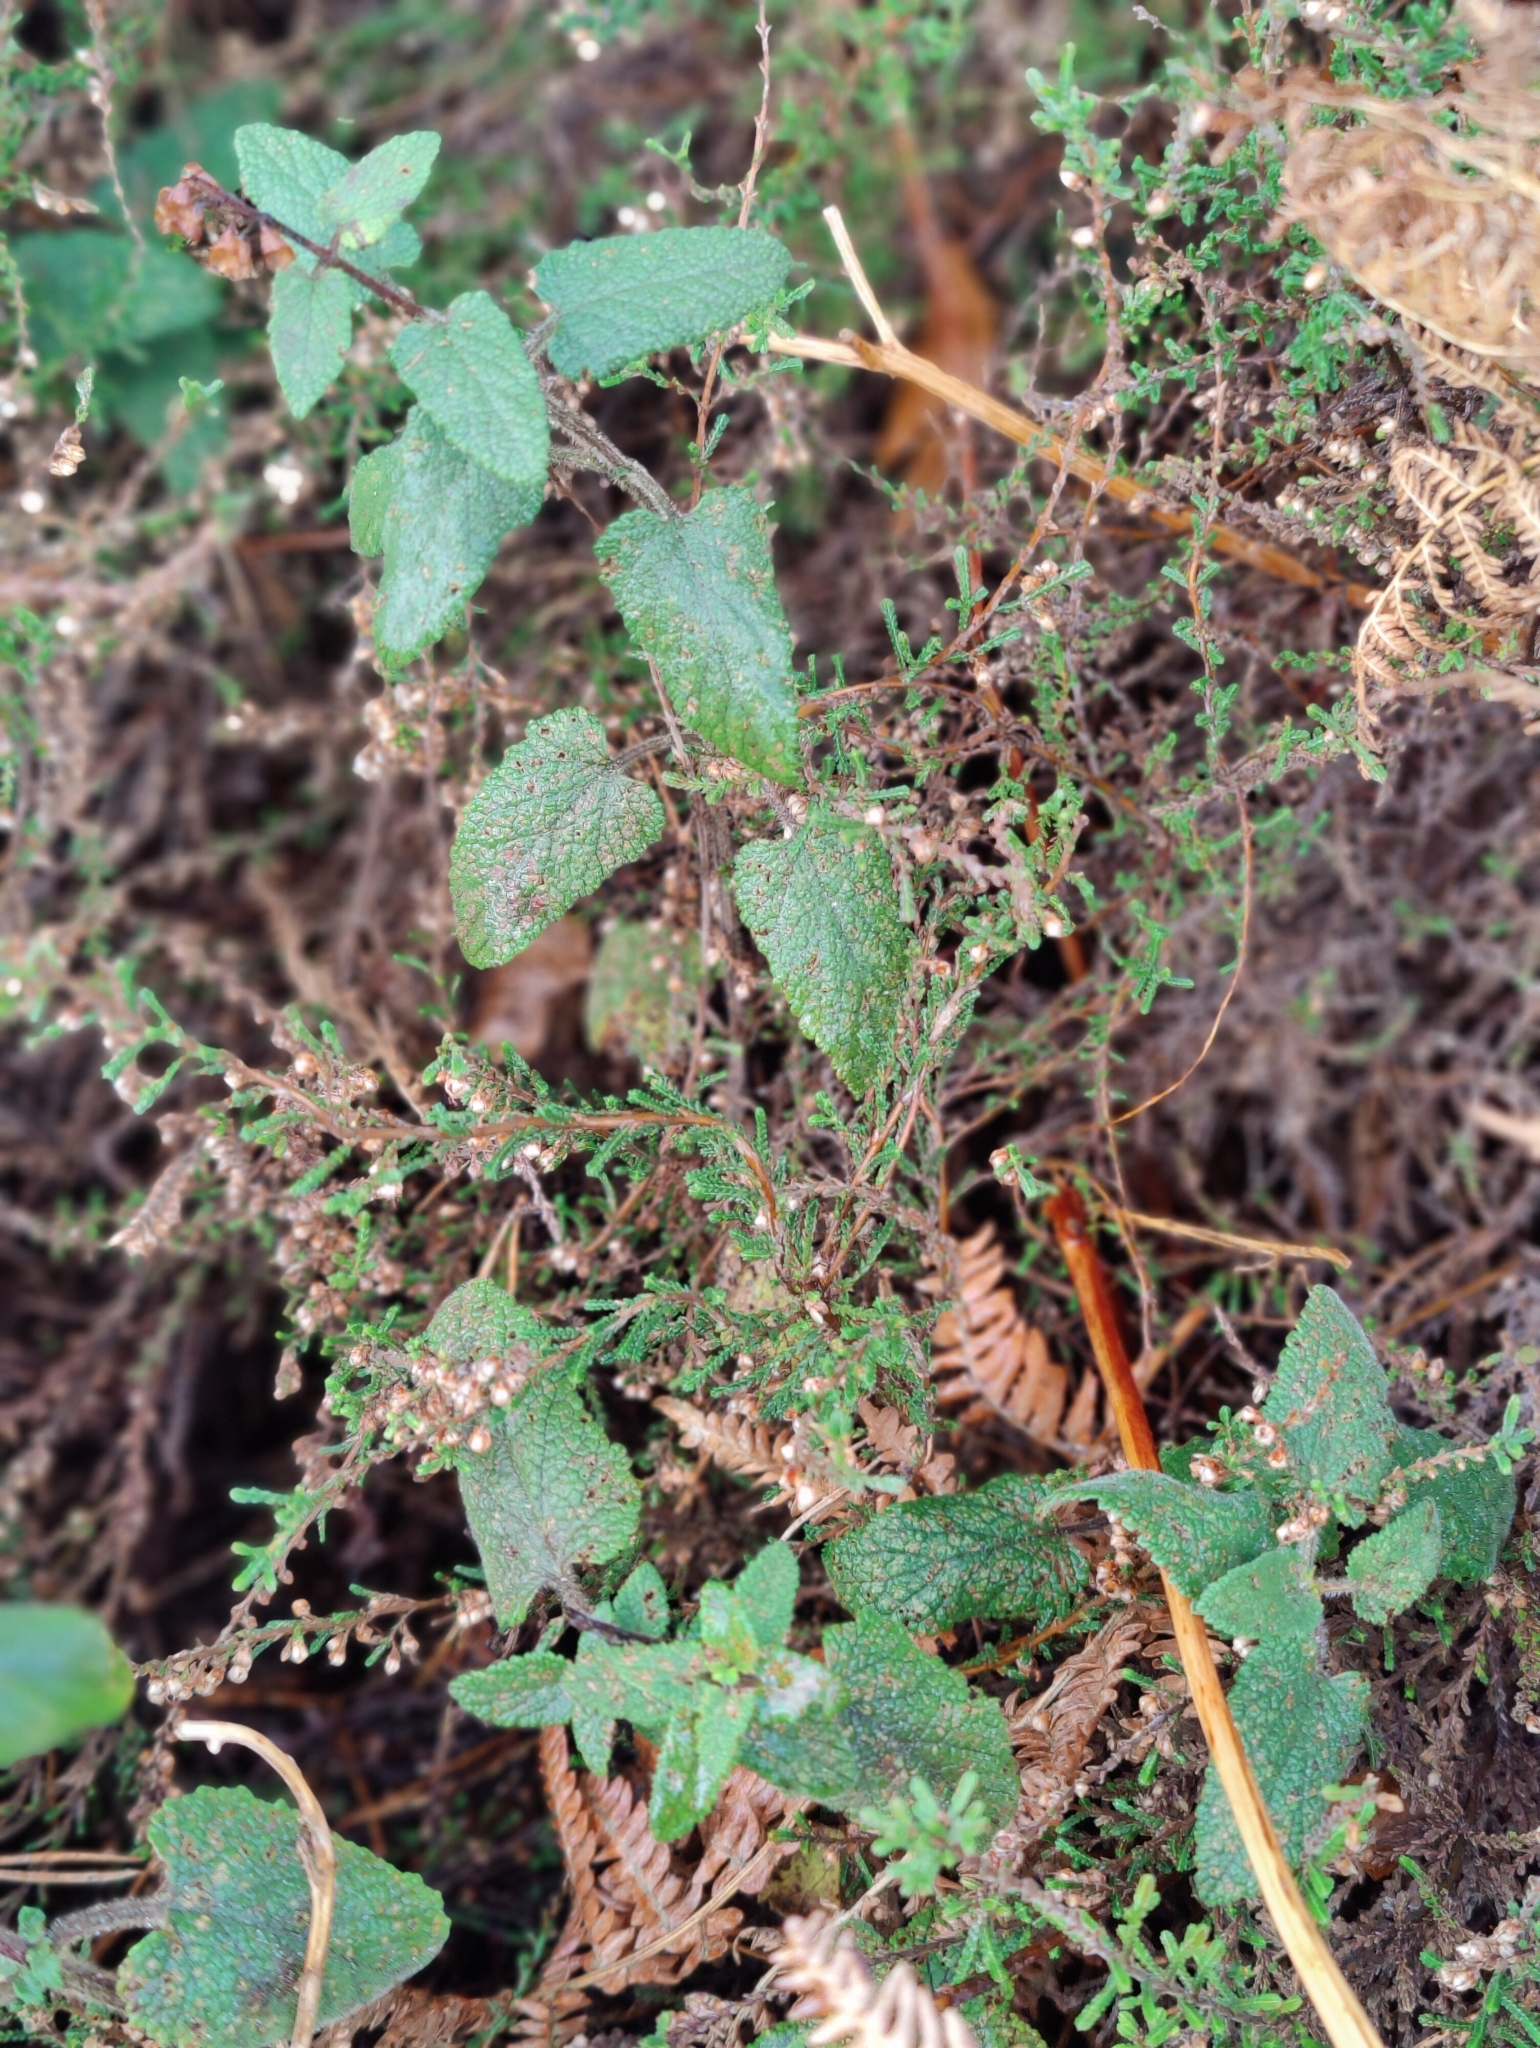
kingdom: Plantae
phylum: Tracheophyta
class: Magnoliopsida
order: Lamiales
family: Lamiaceae
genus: Teucrium
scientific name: Teucrium scorodonia
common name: Woodland germander
